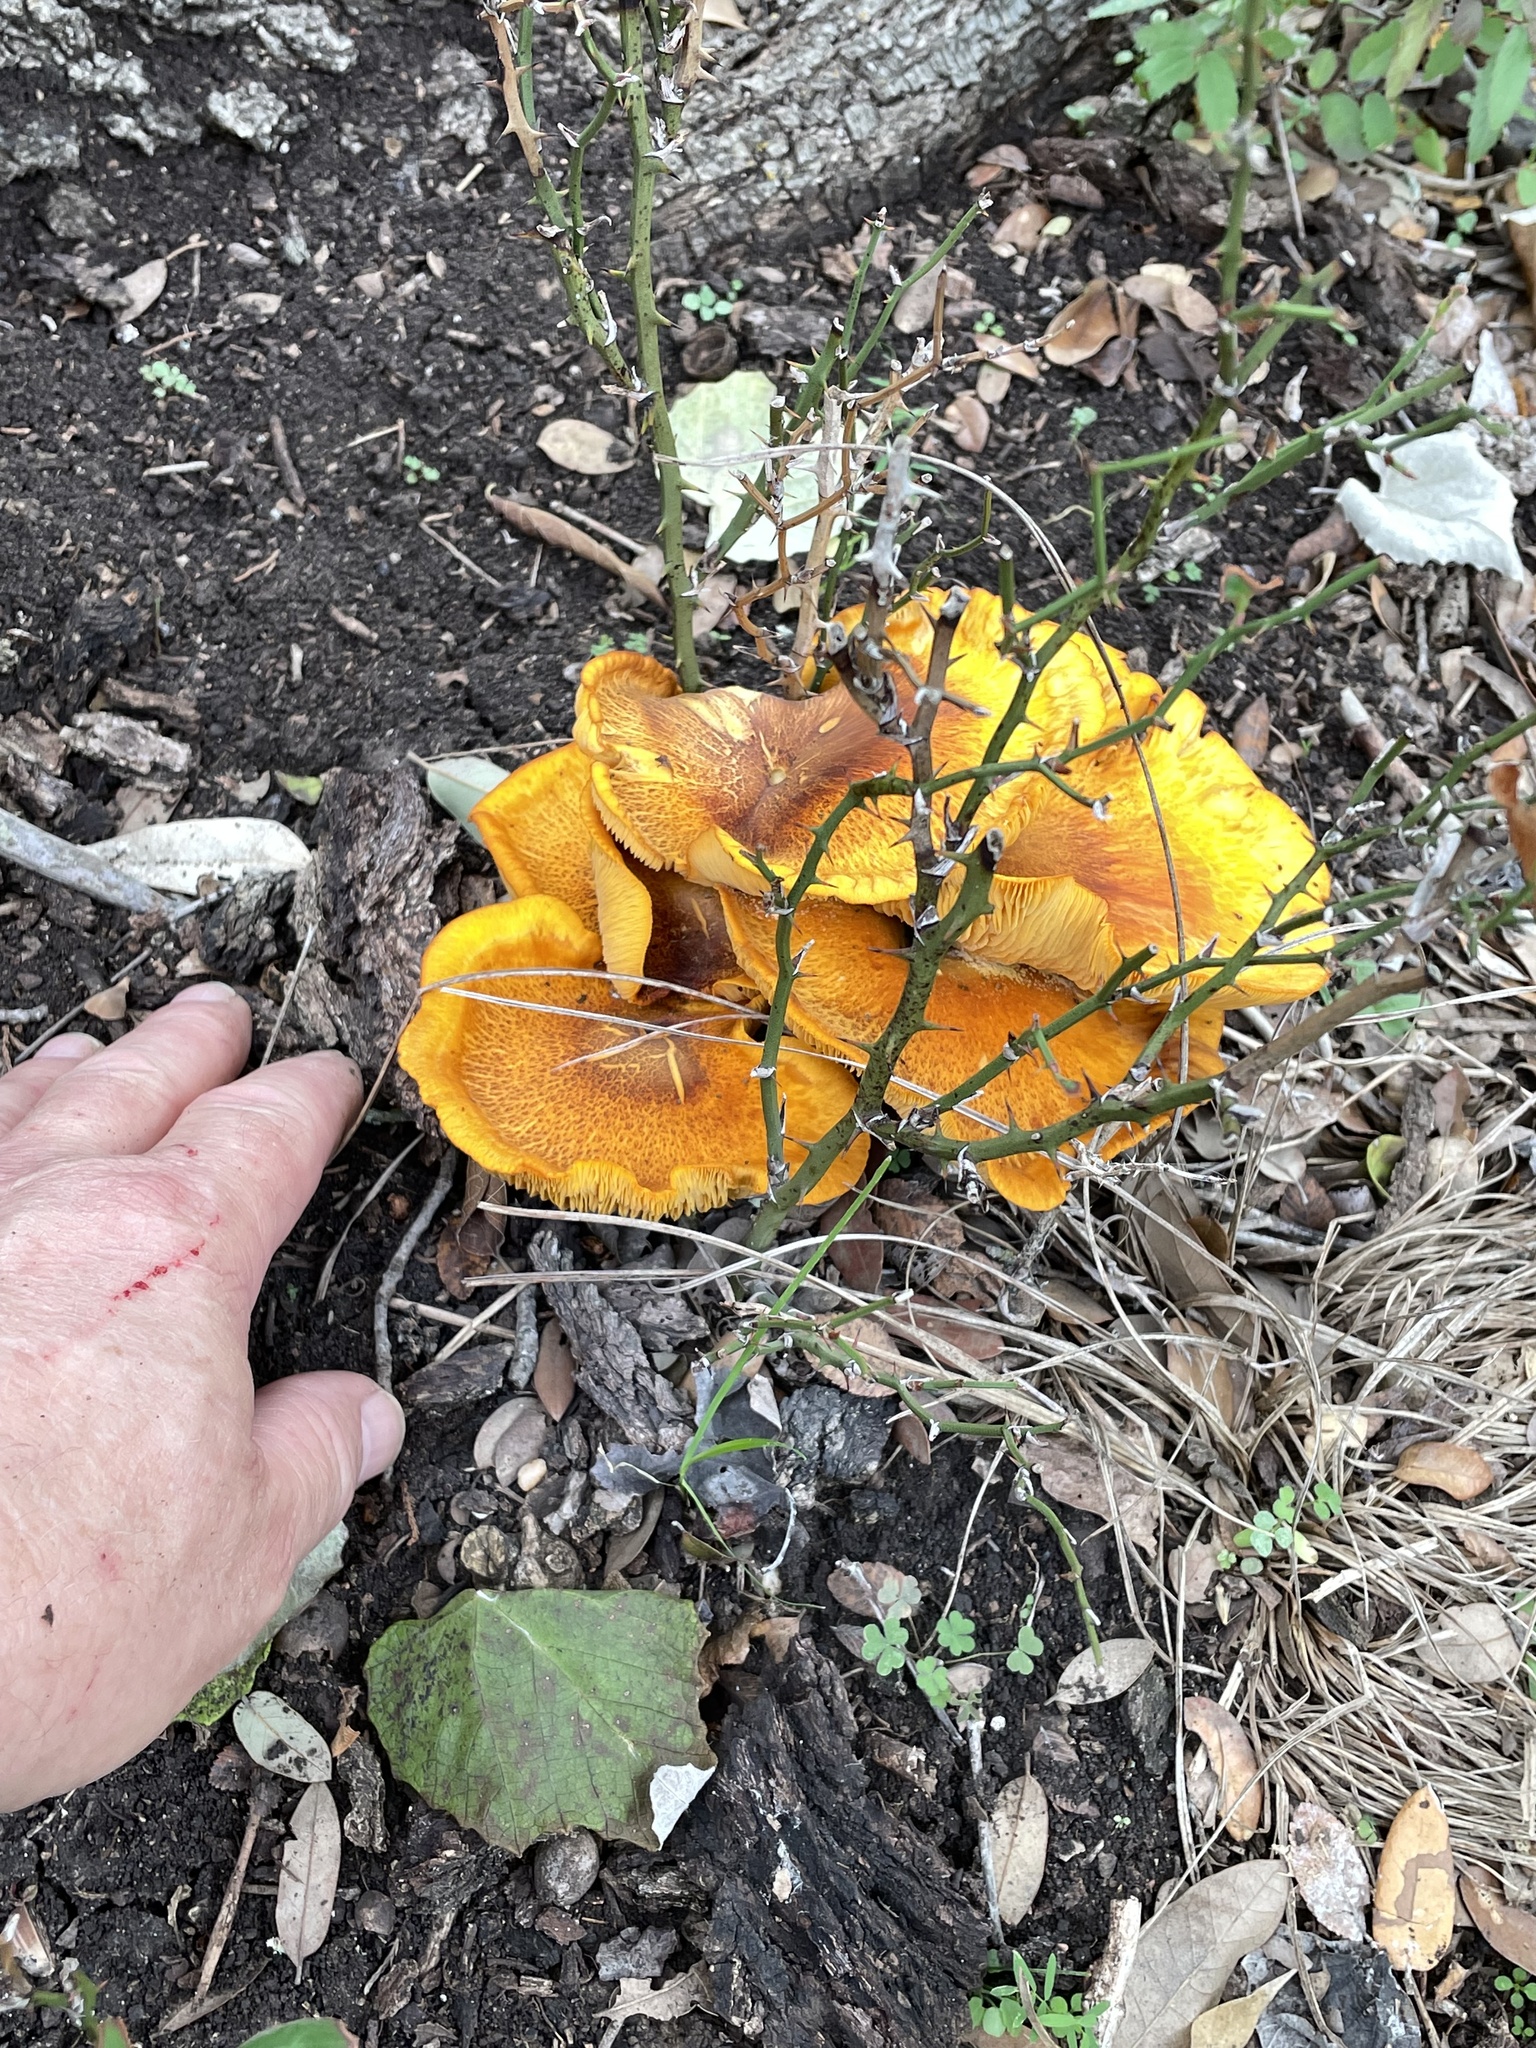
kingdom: Fungi
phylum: Basidiomycota
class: Agaricomycetes
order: Agaricales
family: Omphalotaceae
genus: Omphalotus
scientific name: Omphalotus subilludens
